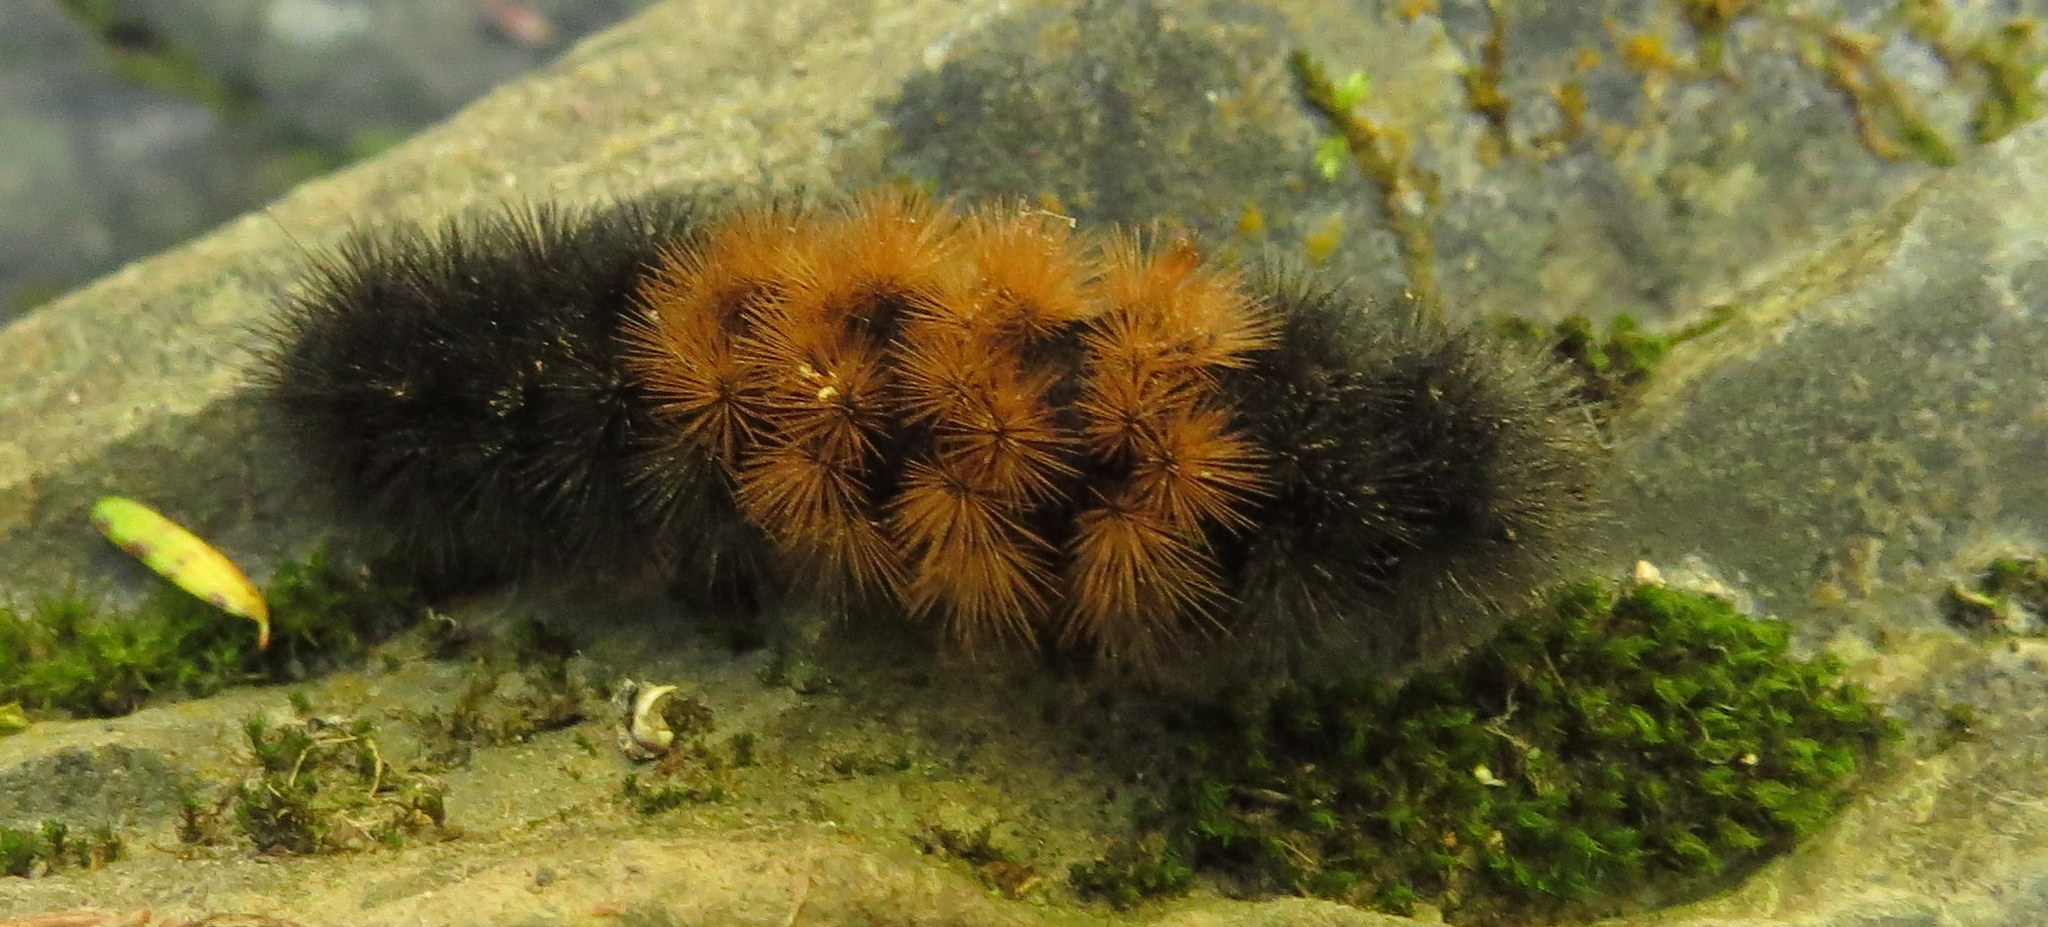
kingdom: Animalia
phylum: Arthropoda
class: Insecta
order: Lepidoptera
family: Erebidae
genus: Pyrrharctia
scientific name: Pyrrharctia isabella
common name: Isabella tiger moth
